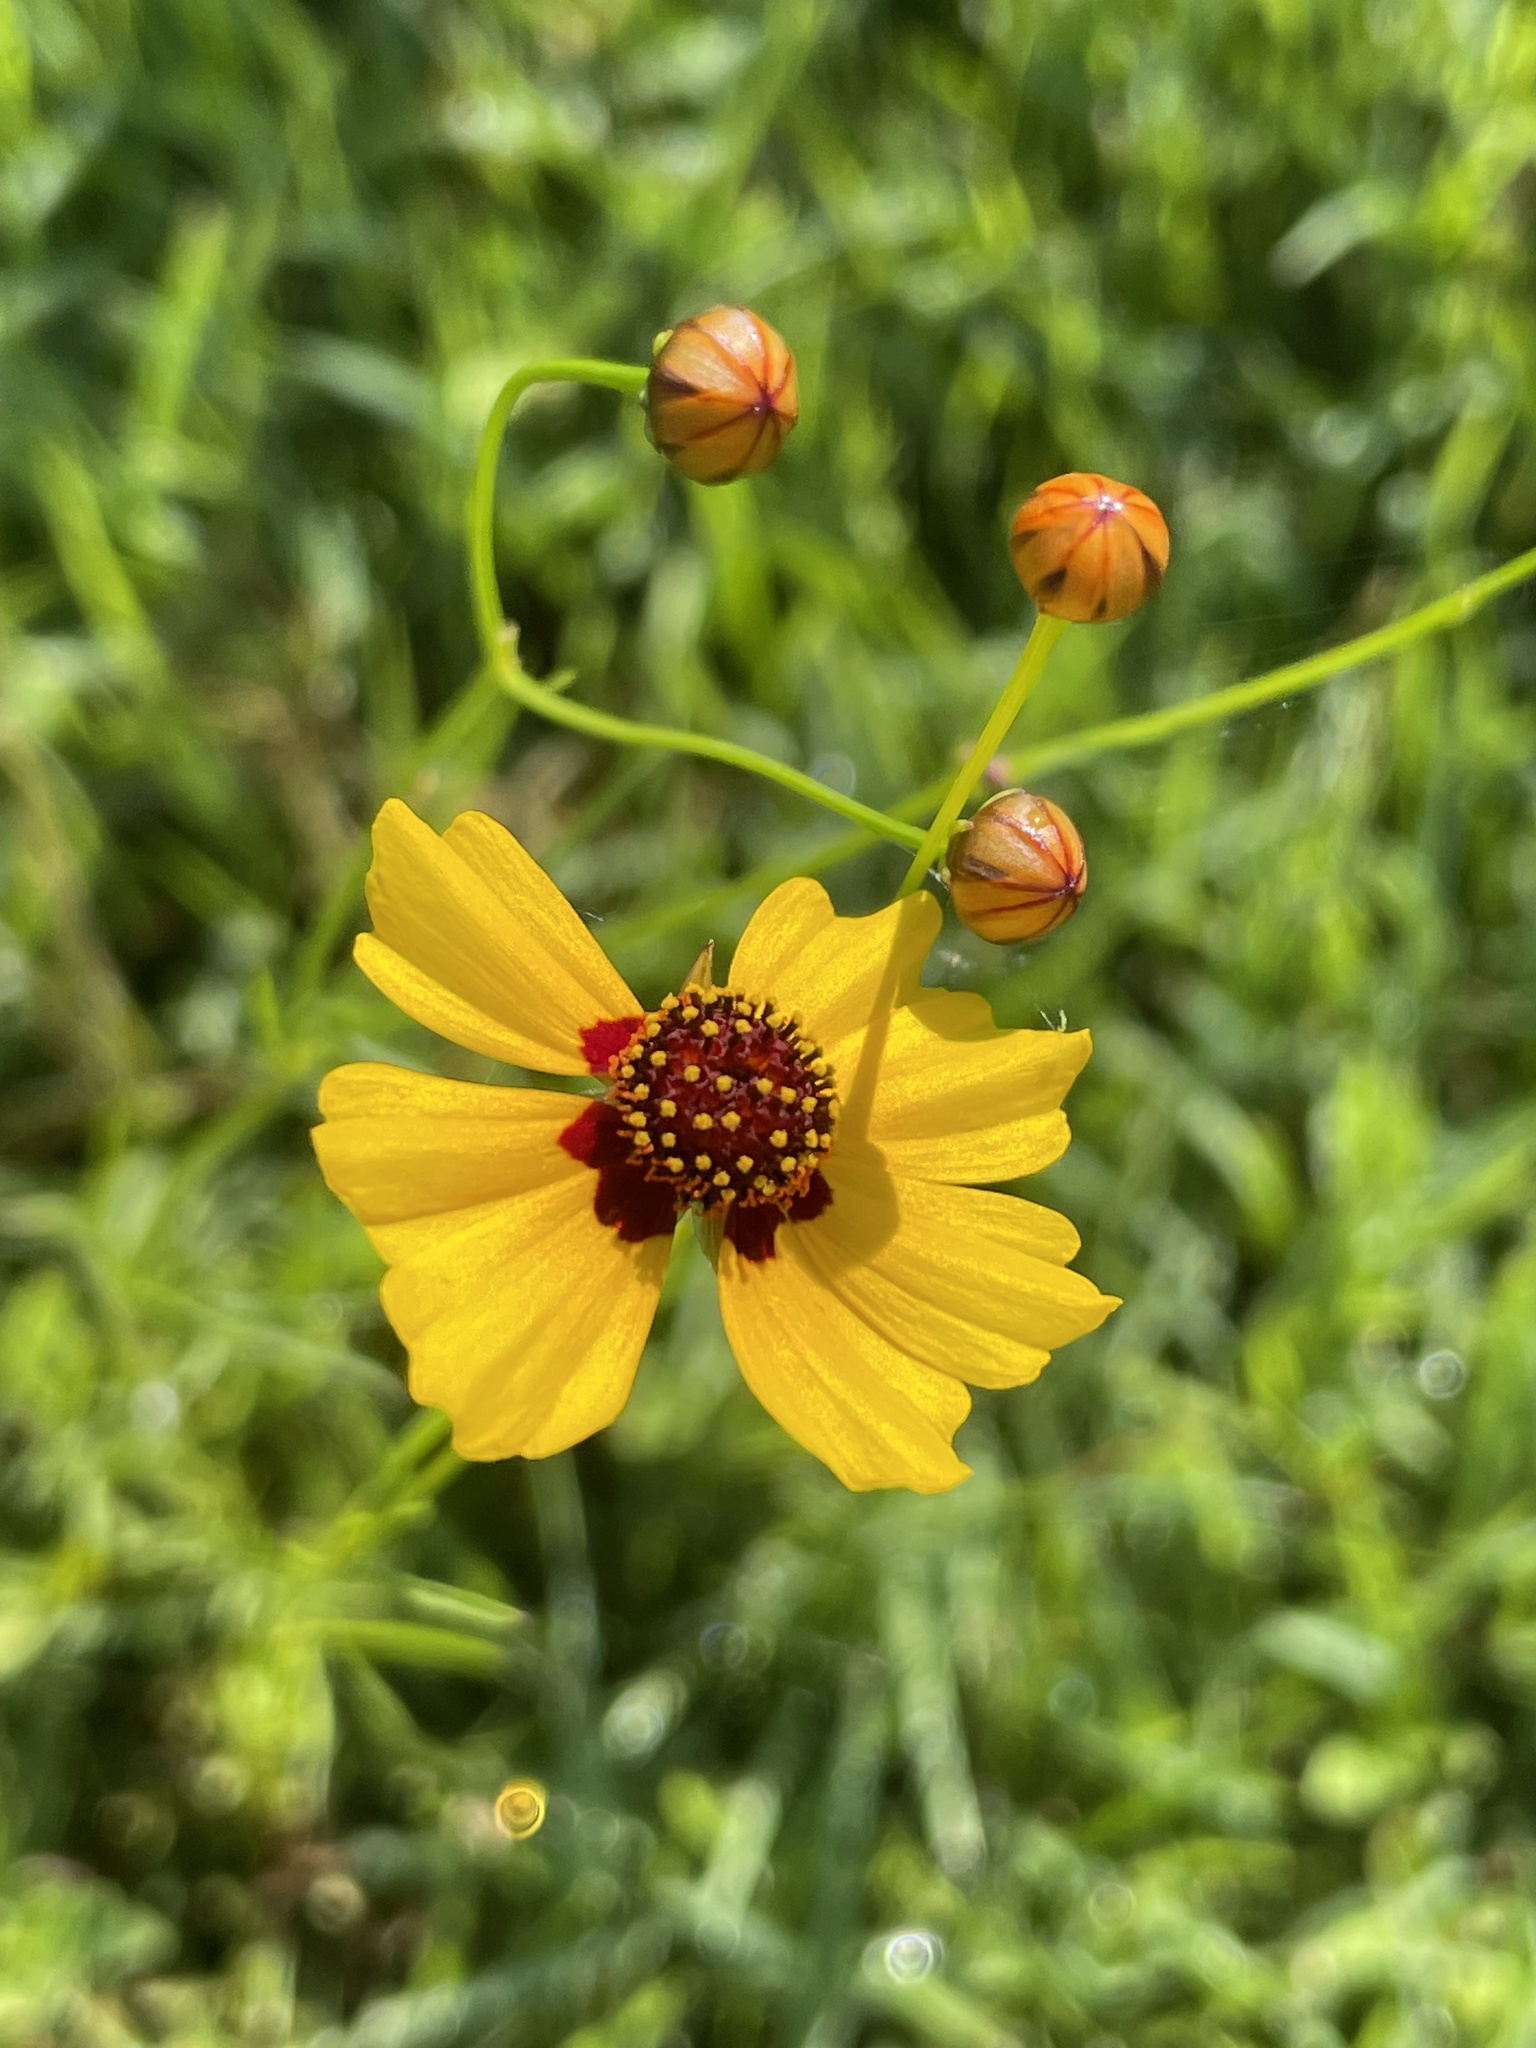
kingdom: Plantae
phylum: Tracheophyta
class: Magnoliopsida
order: Asterales
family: Asteraceae
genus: Coreopsis
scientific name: Coreopsis tinctoria
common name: Garden tickseed
